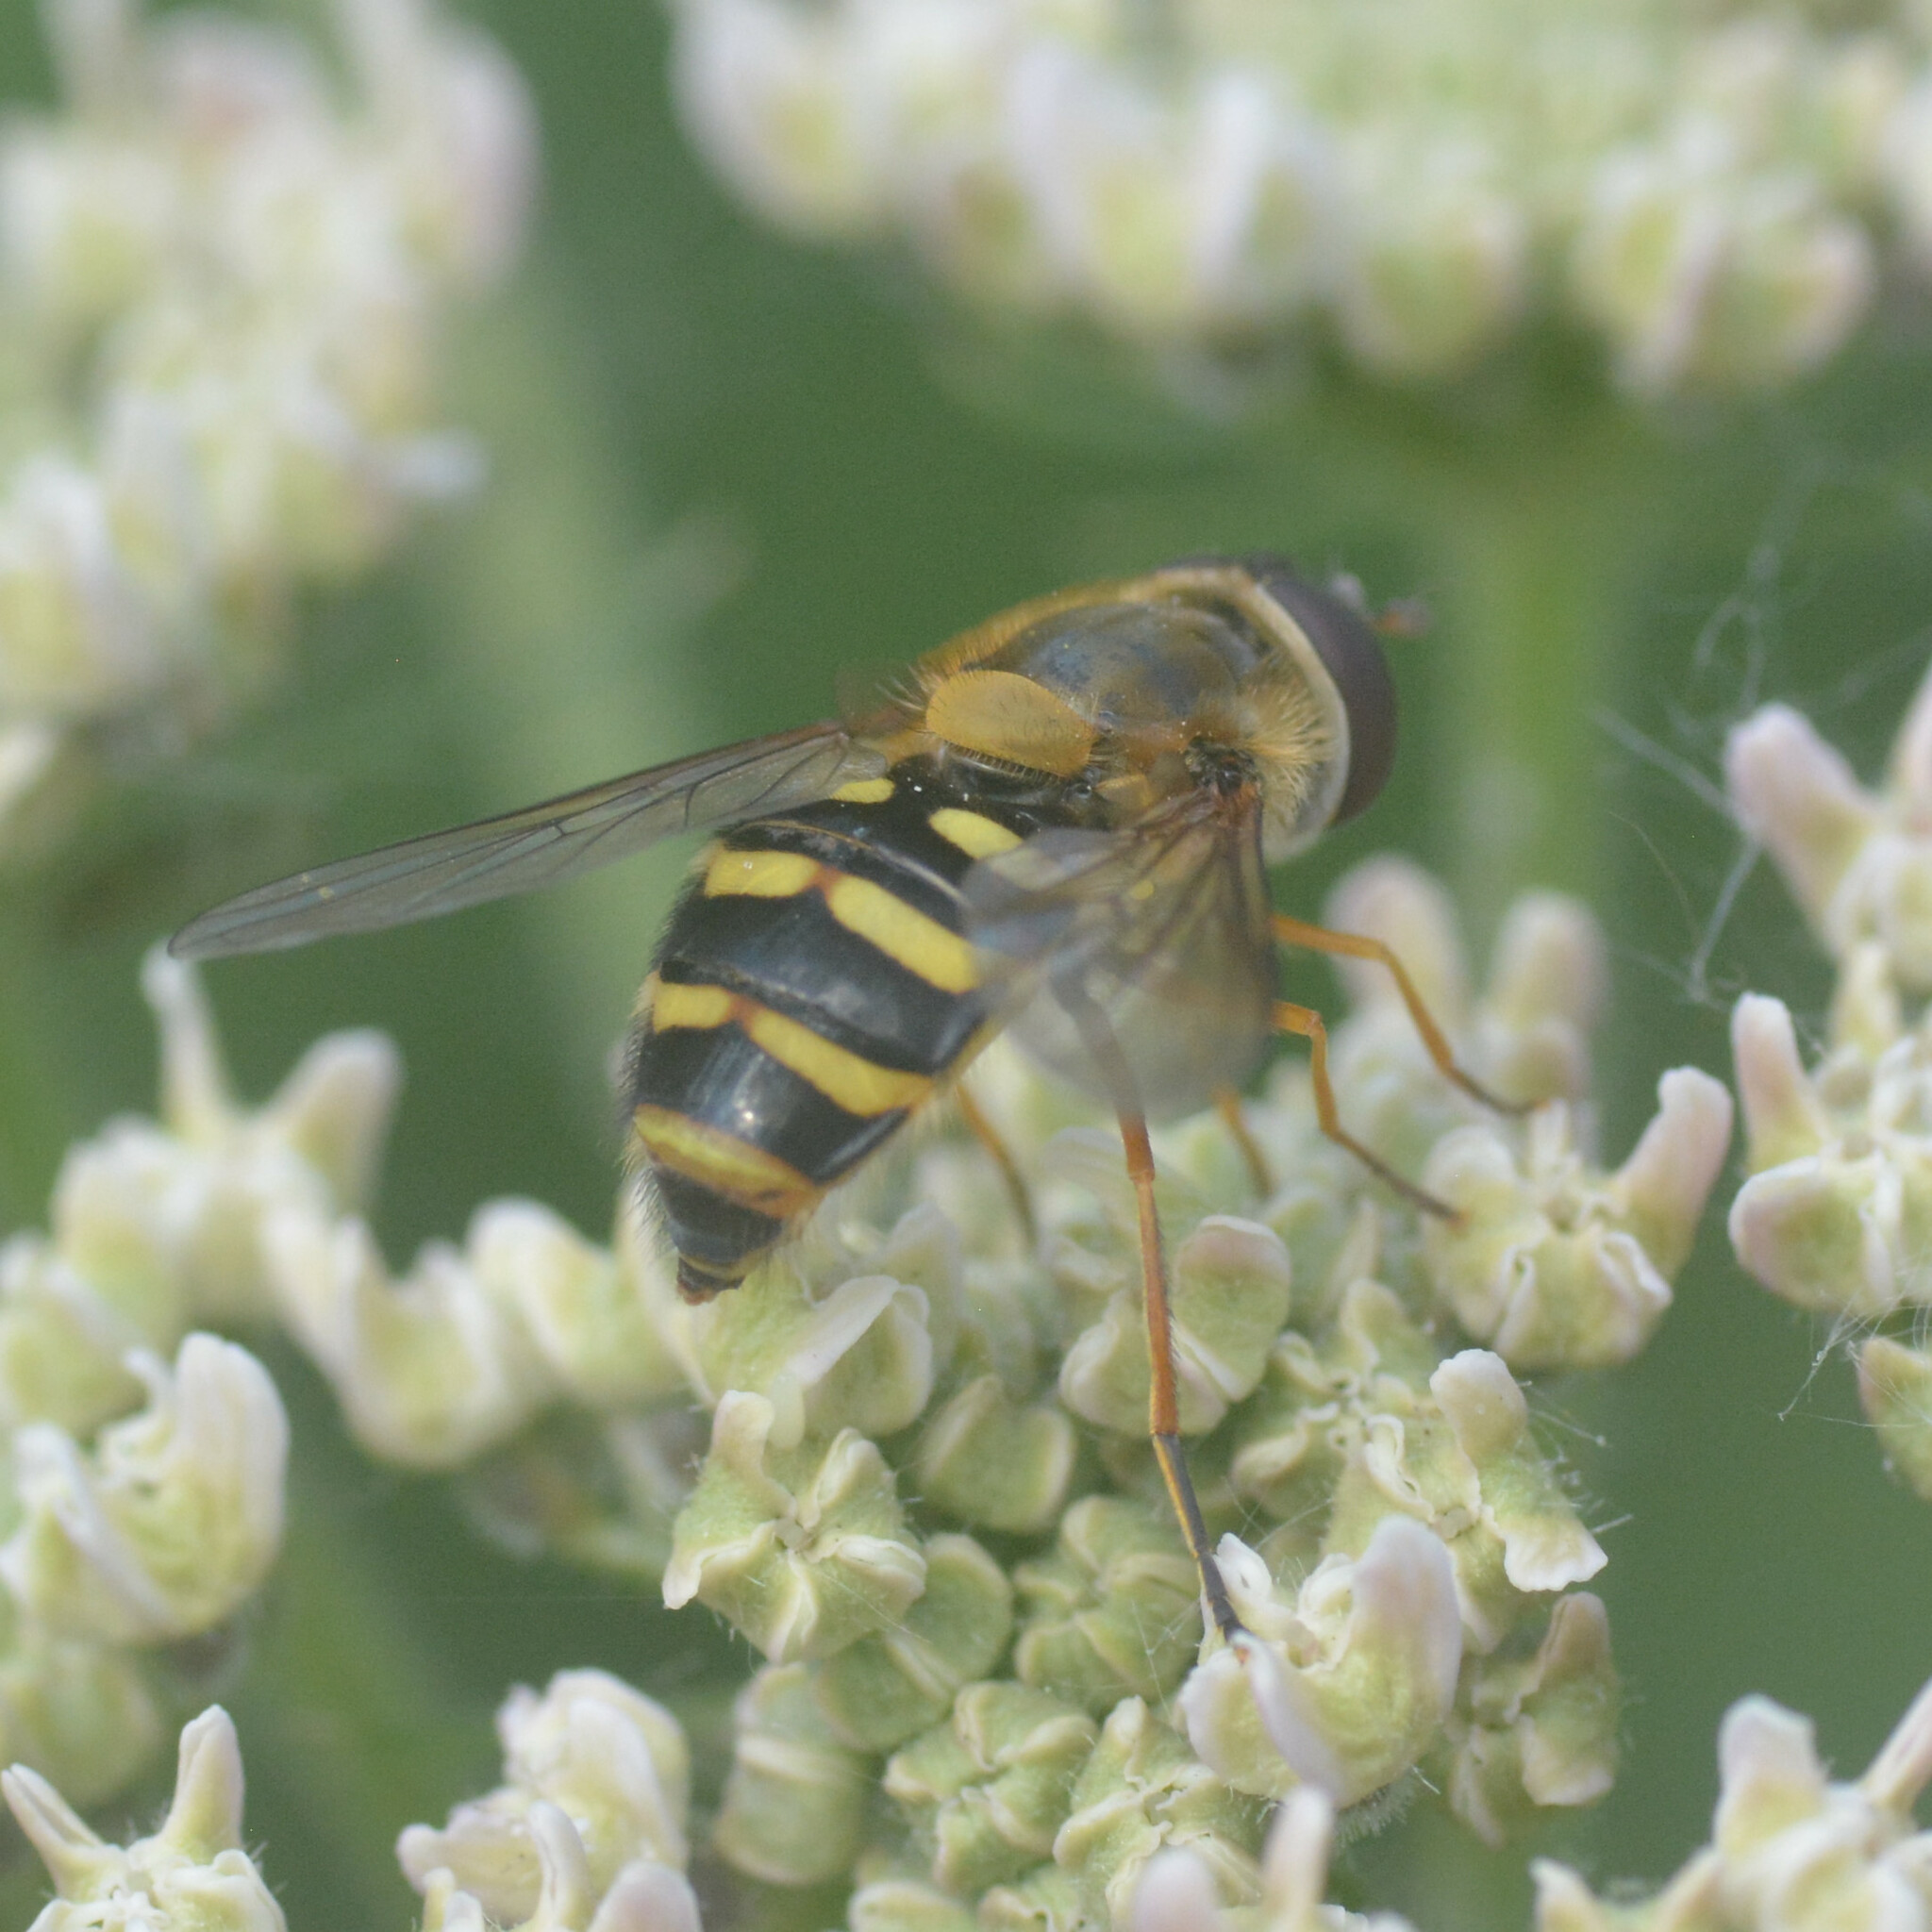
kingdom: Animalia
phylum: Arthropoda
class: Insecta
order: Diptera
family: Syrphidae
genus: Syrphus
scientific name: Syrphus ribesii
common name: Common flower fly
